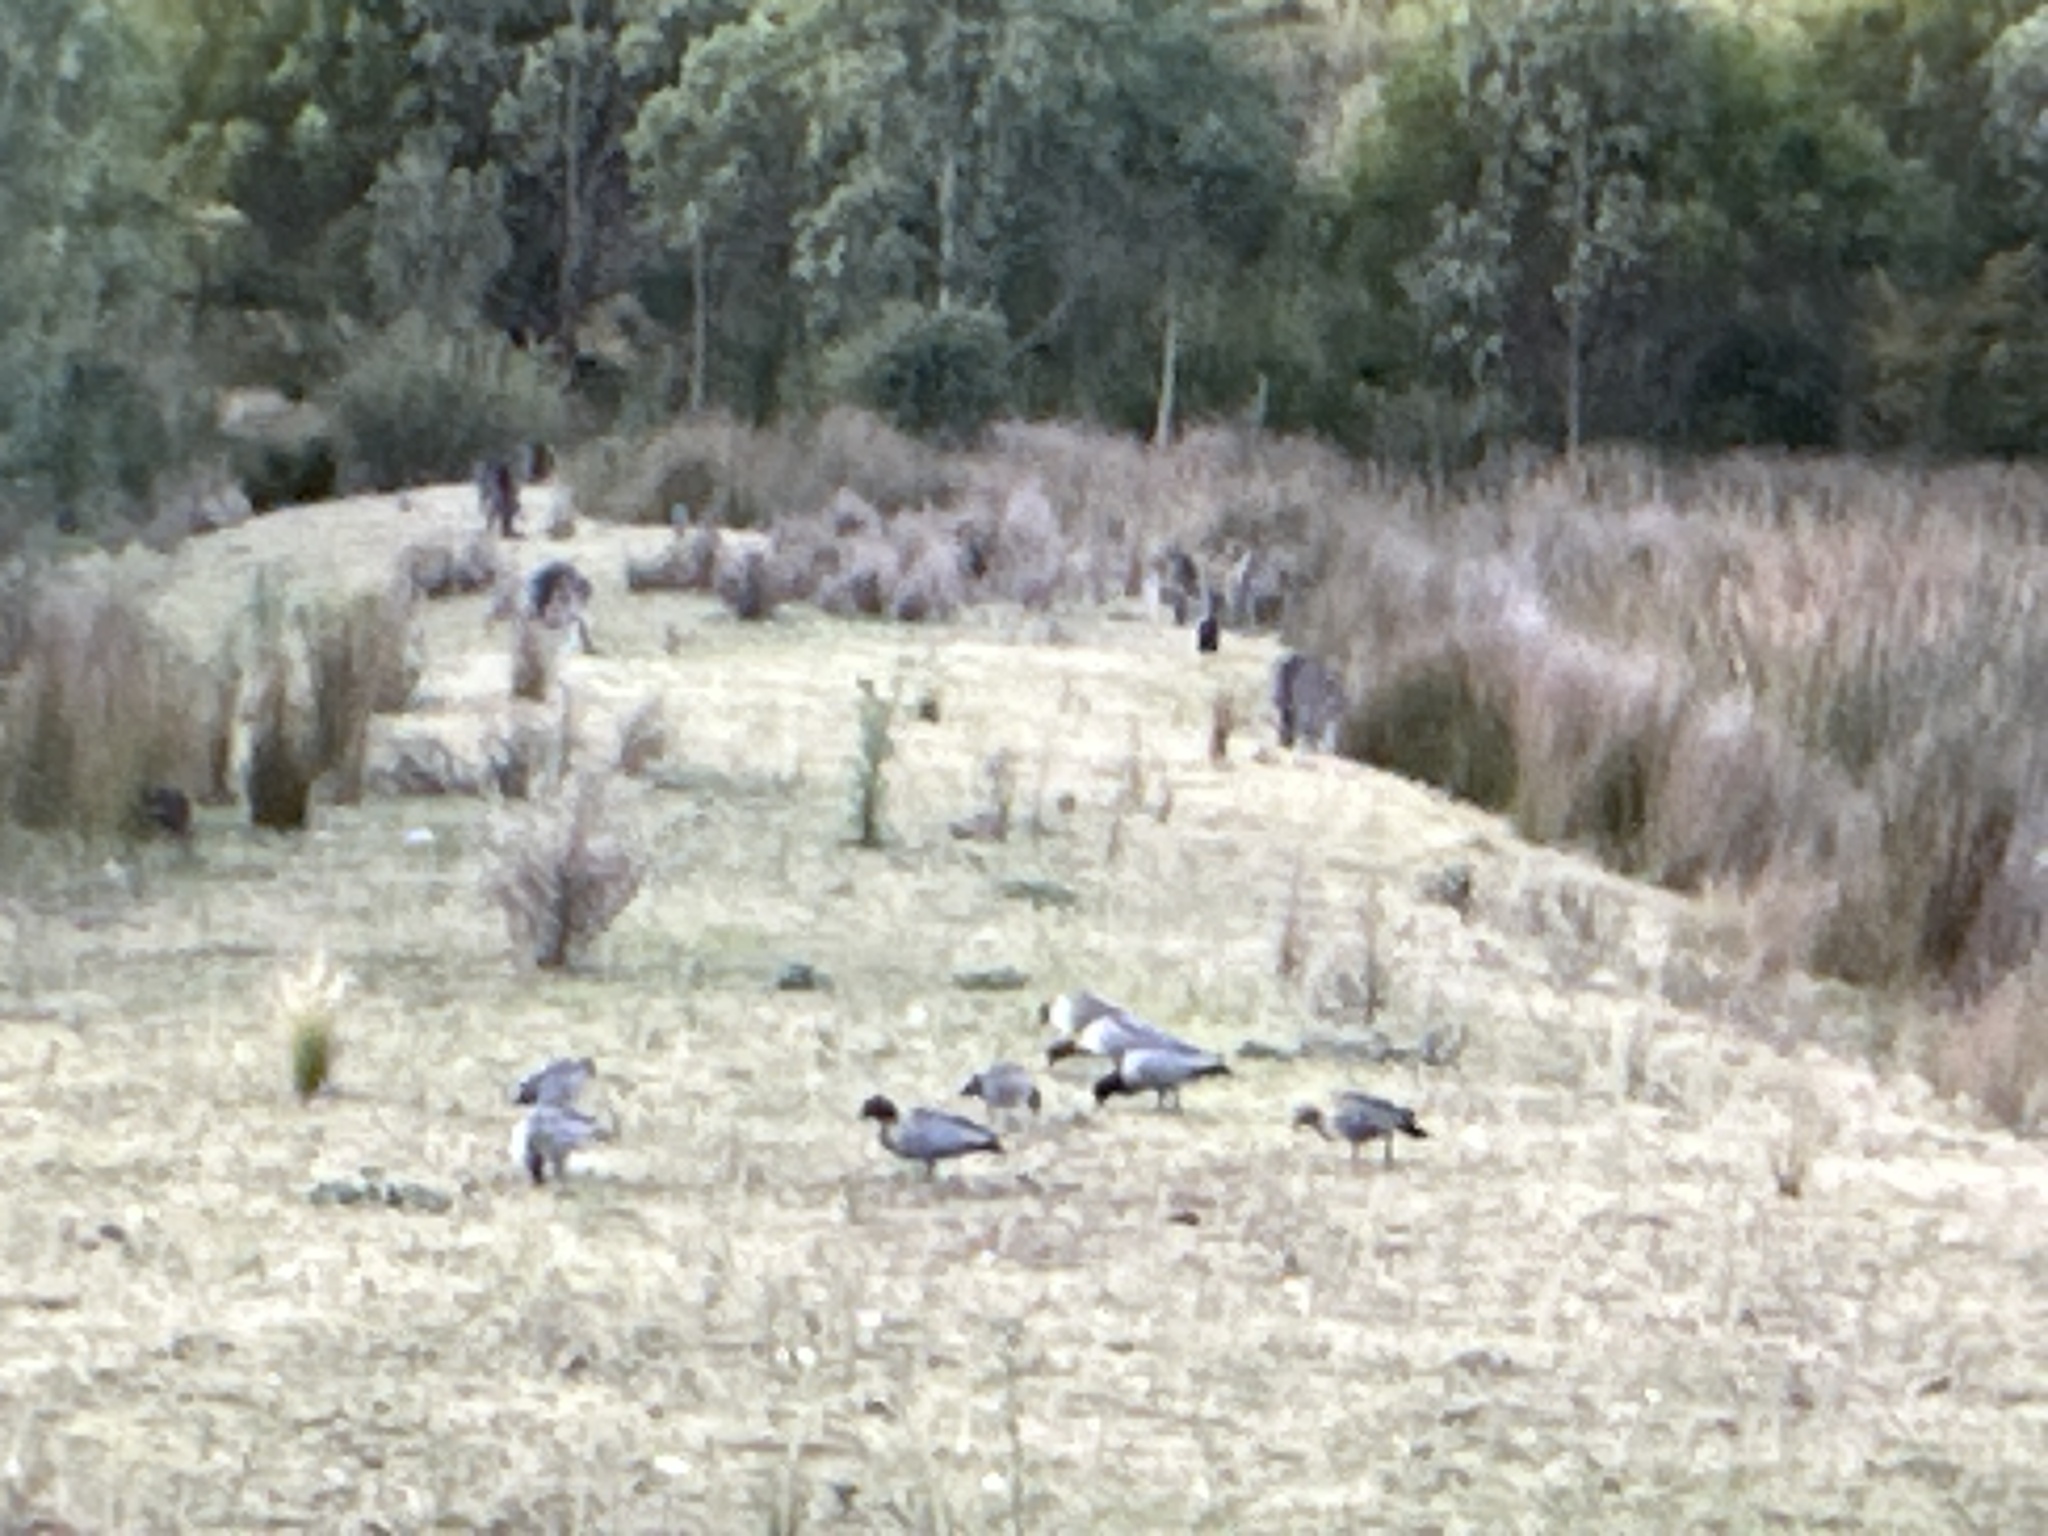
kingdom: Animalia
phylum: Chordata
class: Aves
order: Anseriformes
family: Anatidae
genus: Chenonetta
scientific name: Chenonetta jubata
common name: Maned duck
